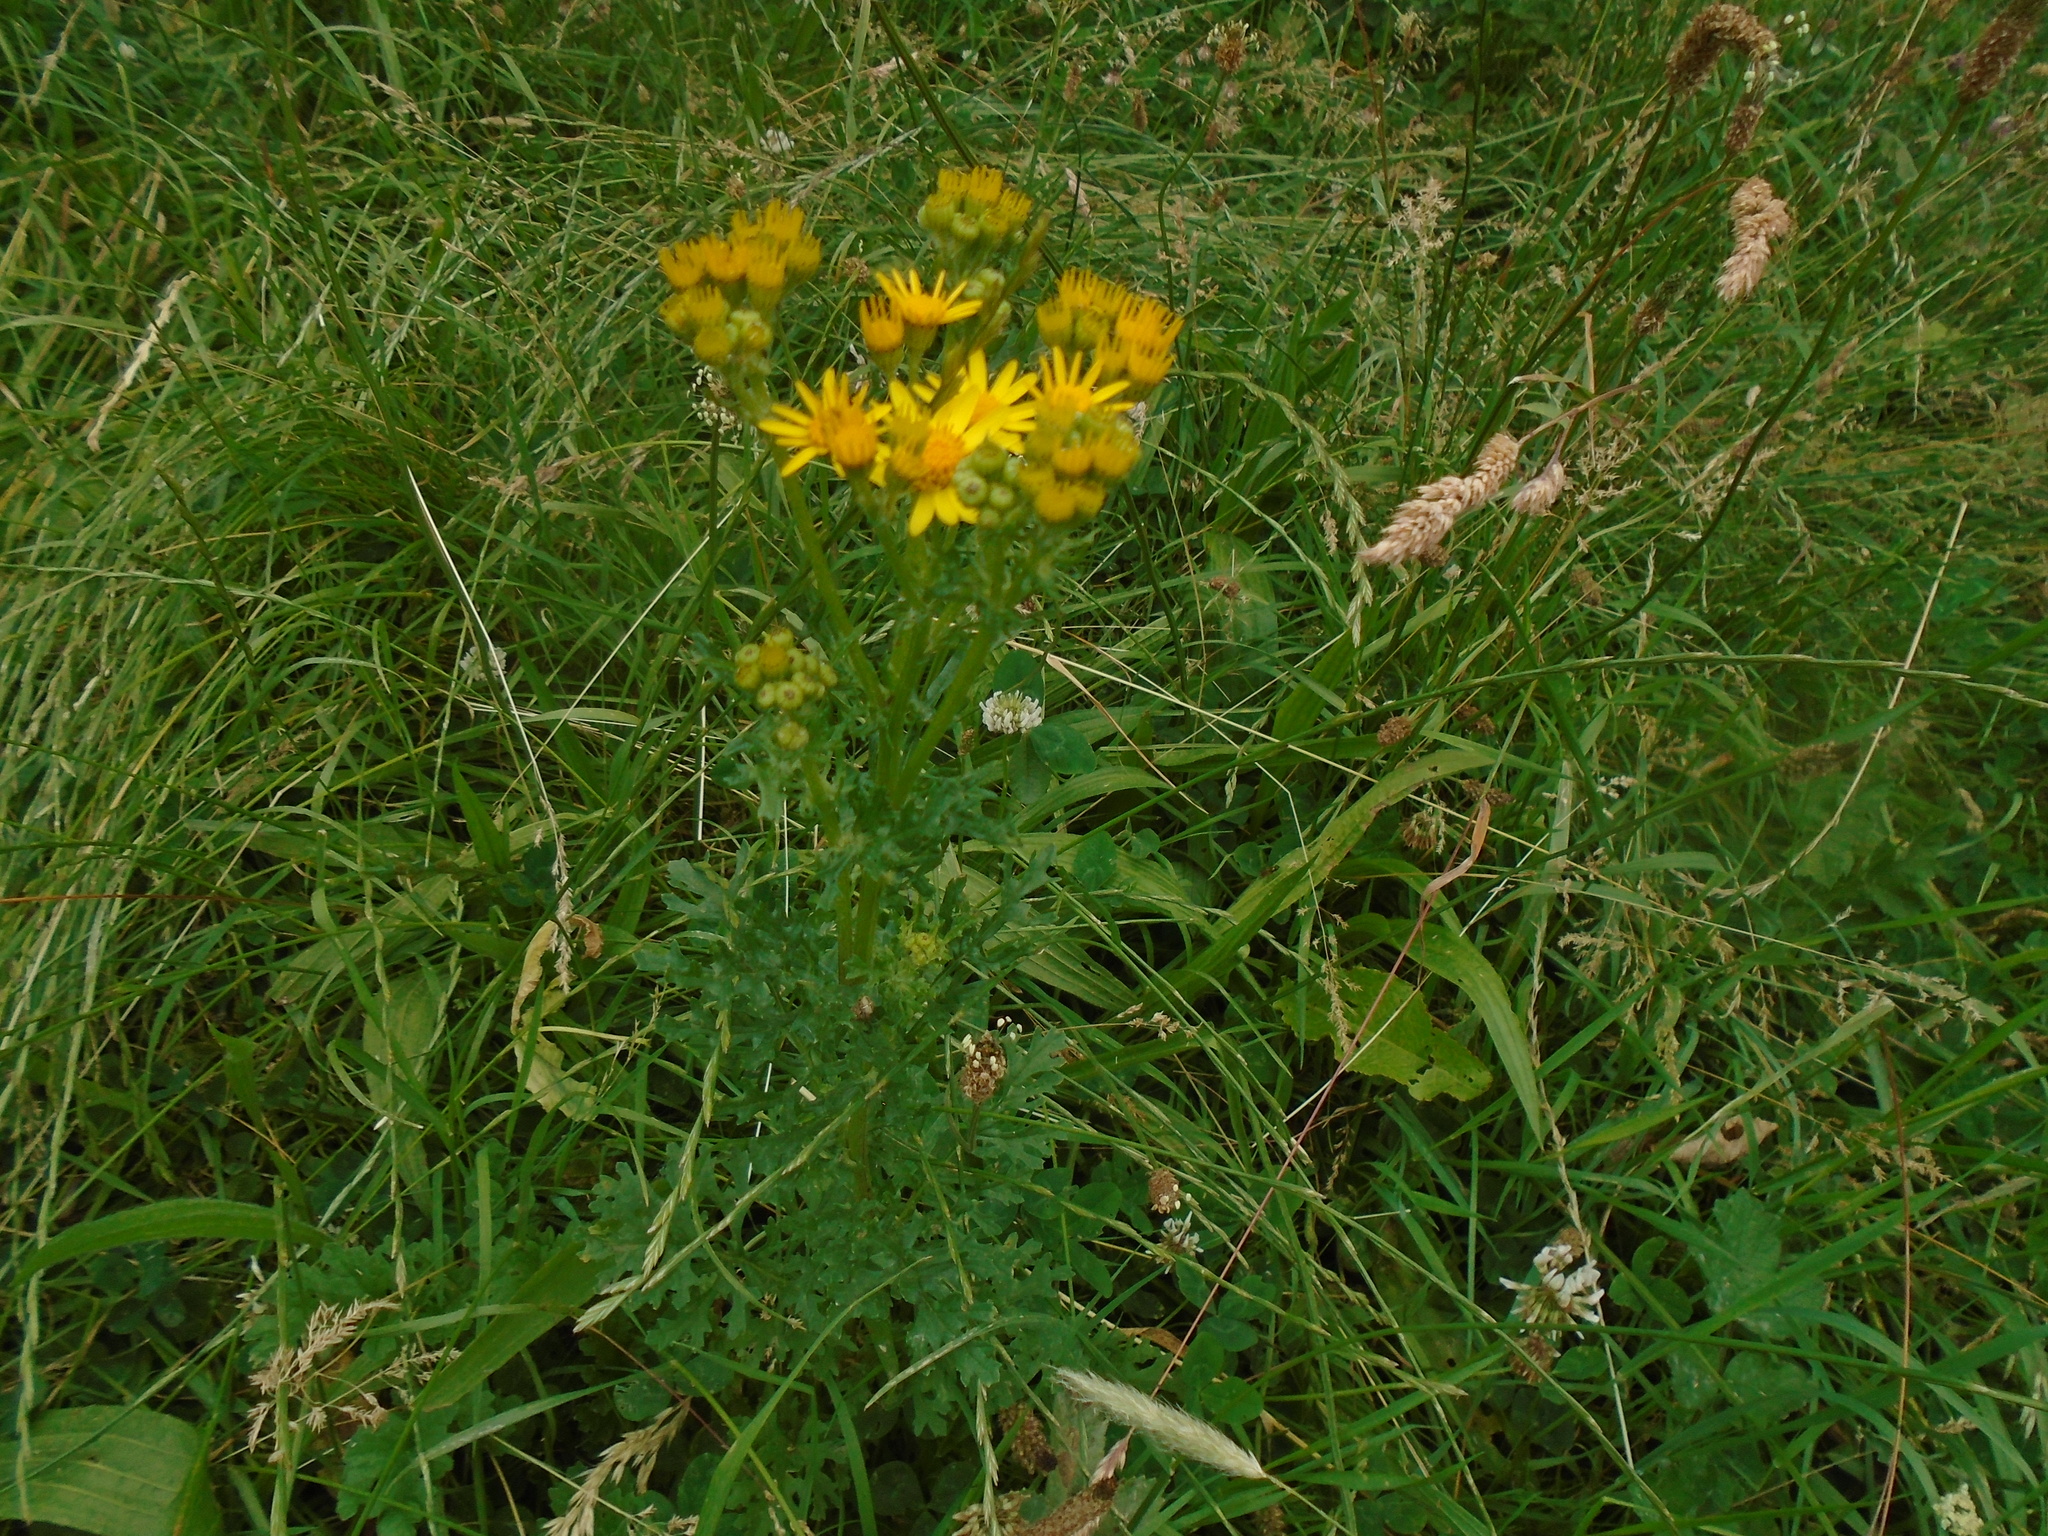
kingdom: Plantae
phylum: Tracheophyta
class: Magnoliopsida
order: Asterales
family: Asteraceae
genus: Jacobaea
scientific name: Jacobaea vulgaris
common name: Stinking willie
